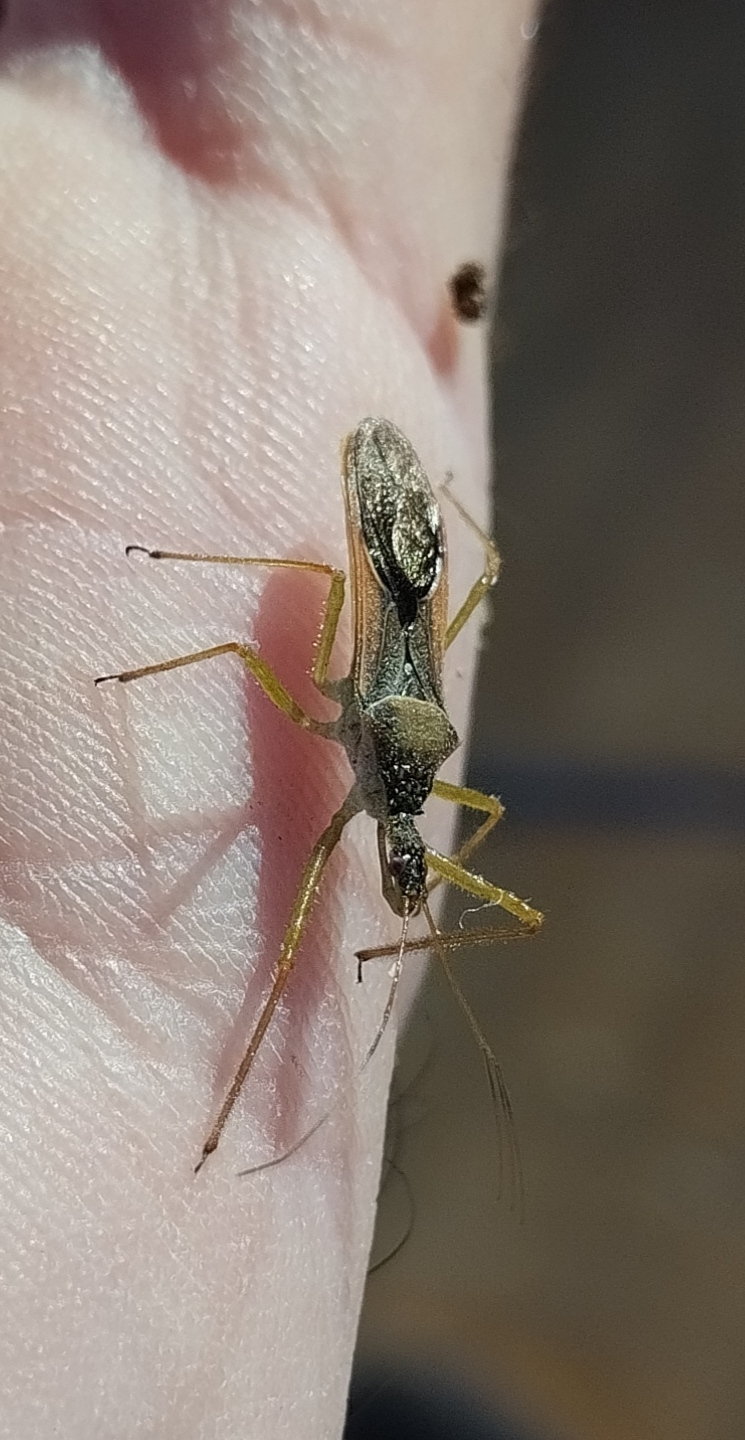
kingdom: Animalia
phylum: Arthropoda
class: Insecta
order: Hemiptera
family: Reduviidae
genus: Zelus
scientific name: Zelus renardii
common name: Assassin bug
